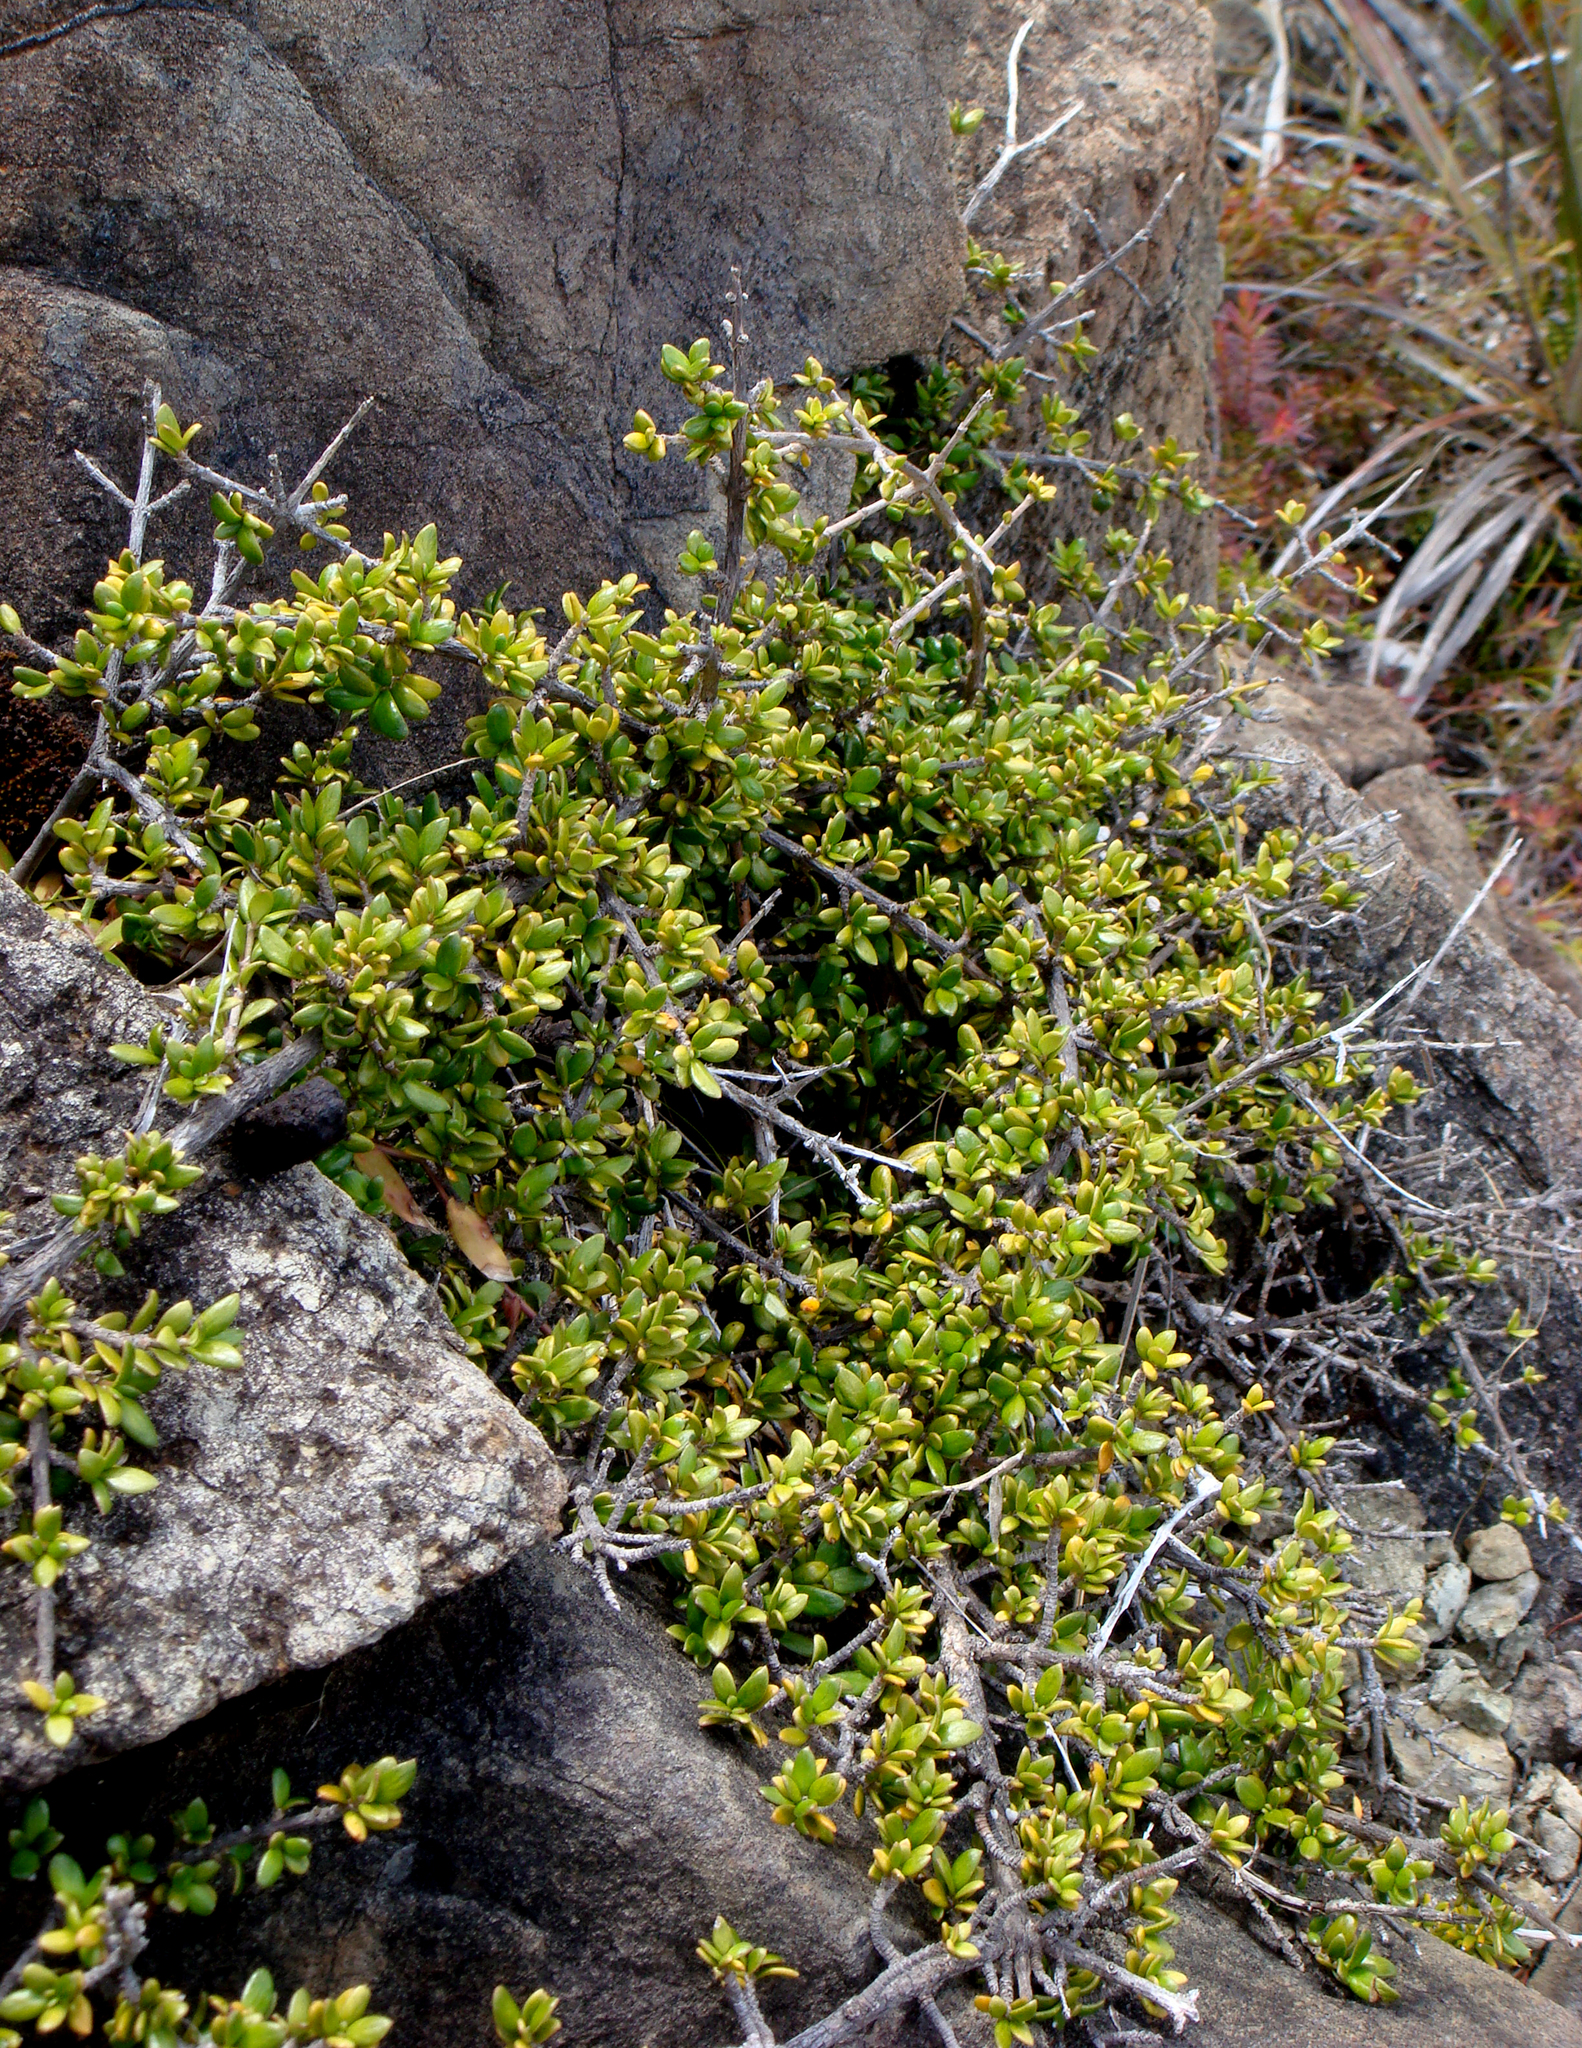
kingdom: Plantae
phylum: Tracheophyta
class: Magnoliopsida
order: Gentianales
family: Rubiaceae
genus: Coprosma
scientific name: Coprosma obconica
